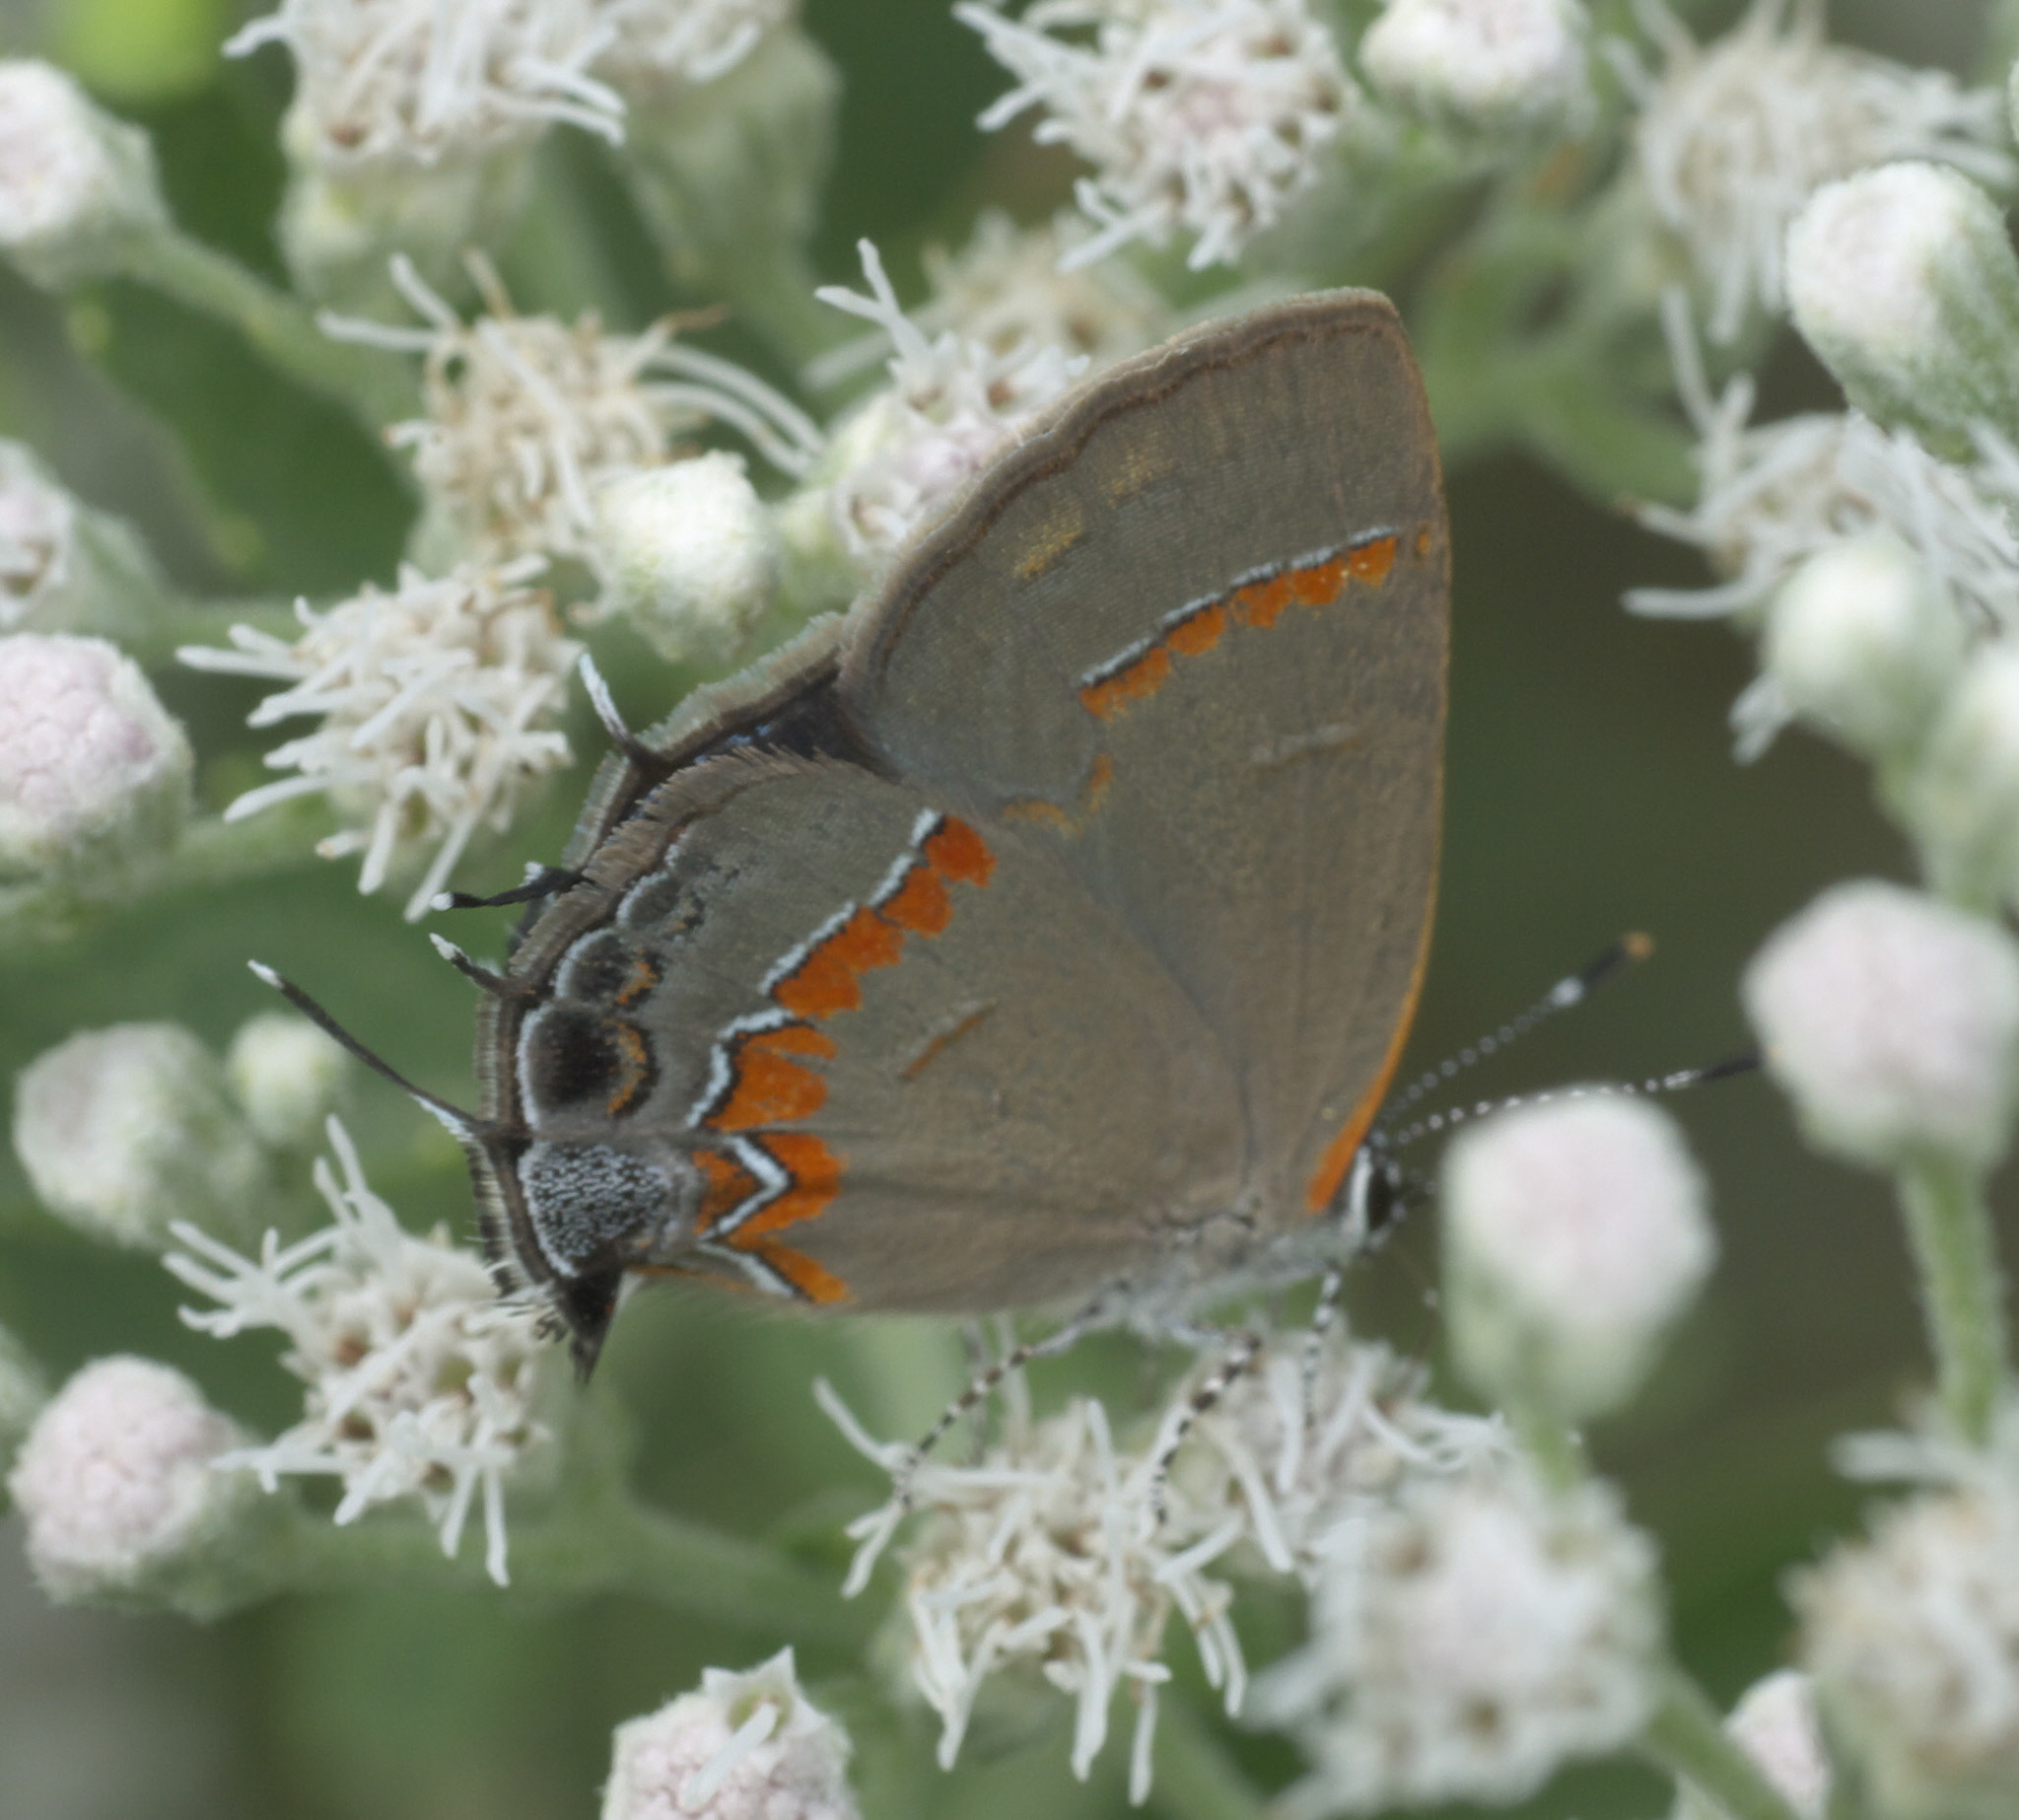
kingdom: Animalia
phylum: Arthropoda
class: Insecta
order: Lepidoptera
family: Lycaenidae
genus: Calycopis
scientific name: Calycopis cecrops
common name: Red-banded hairstreak
